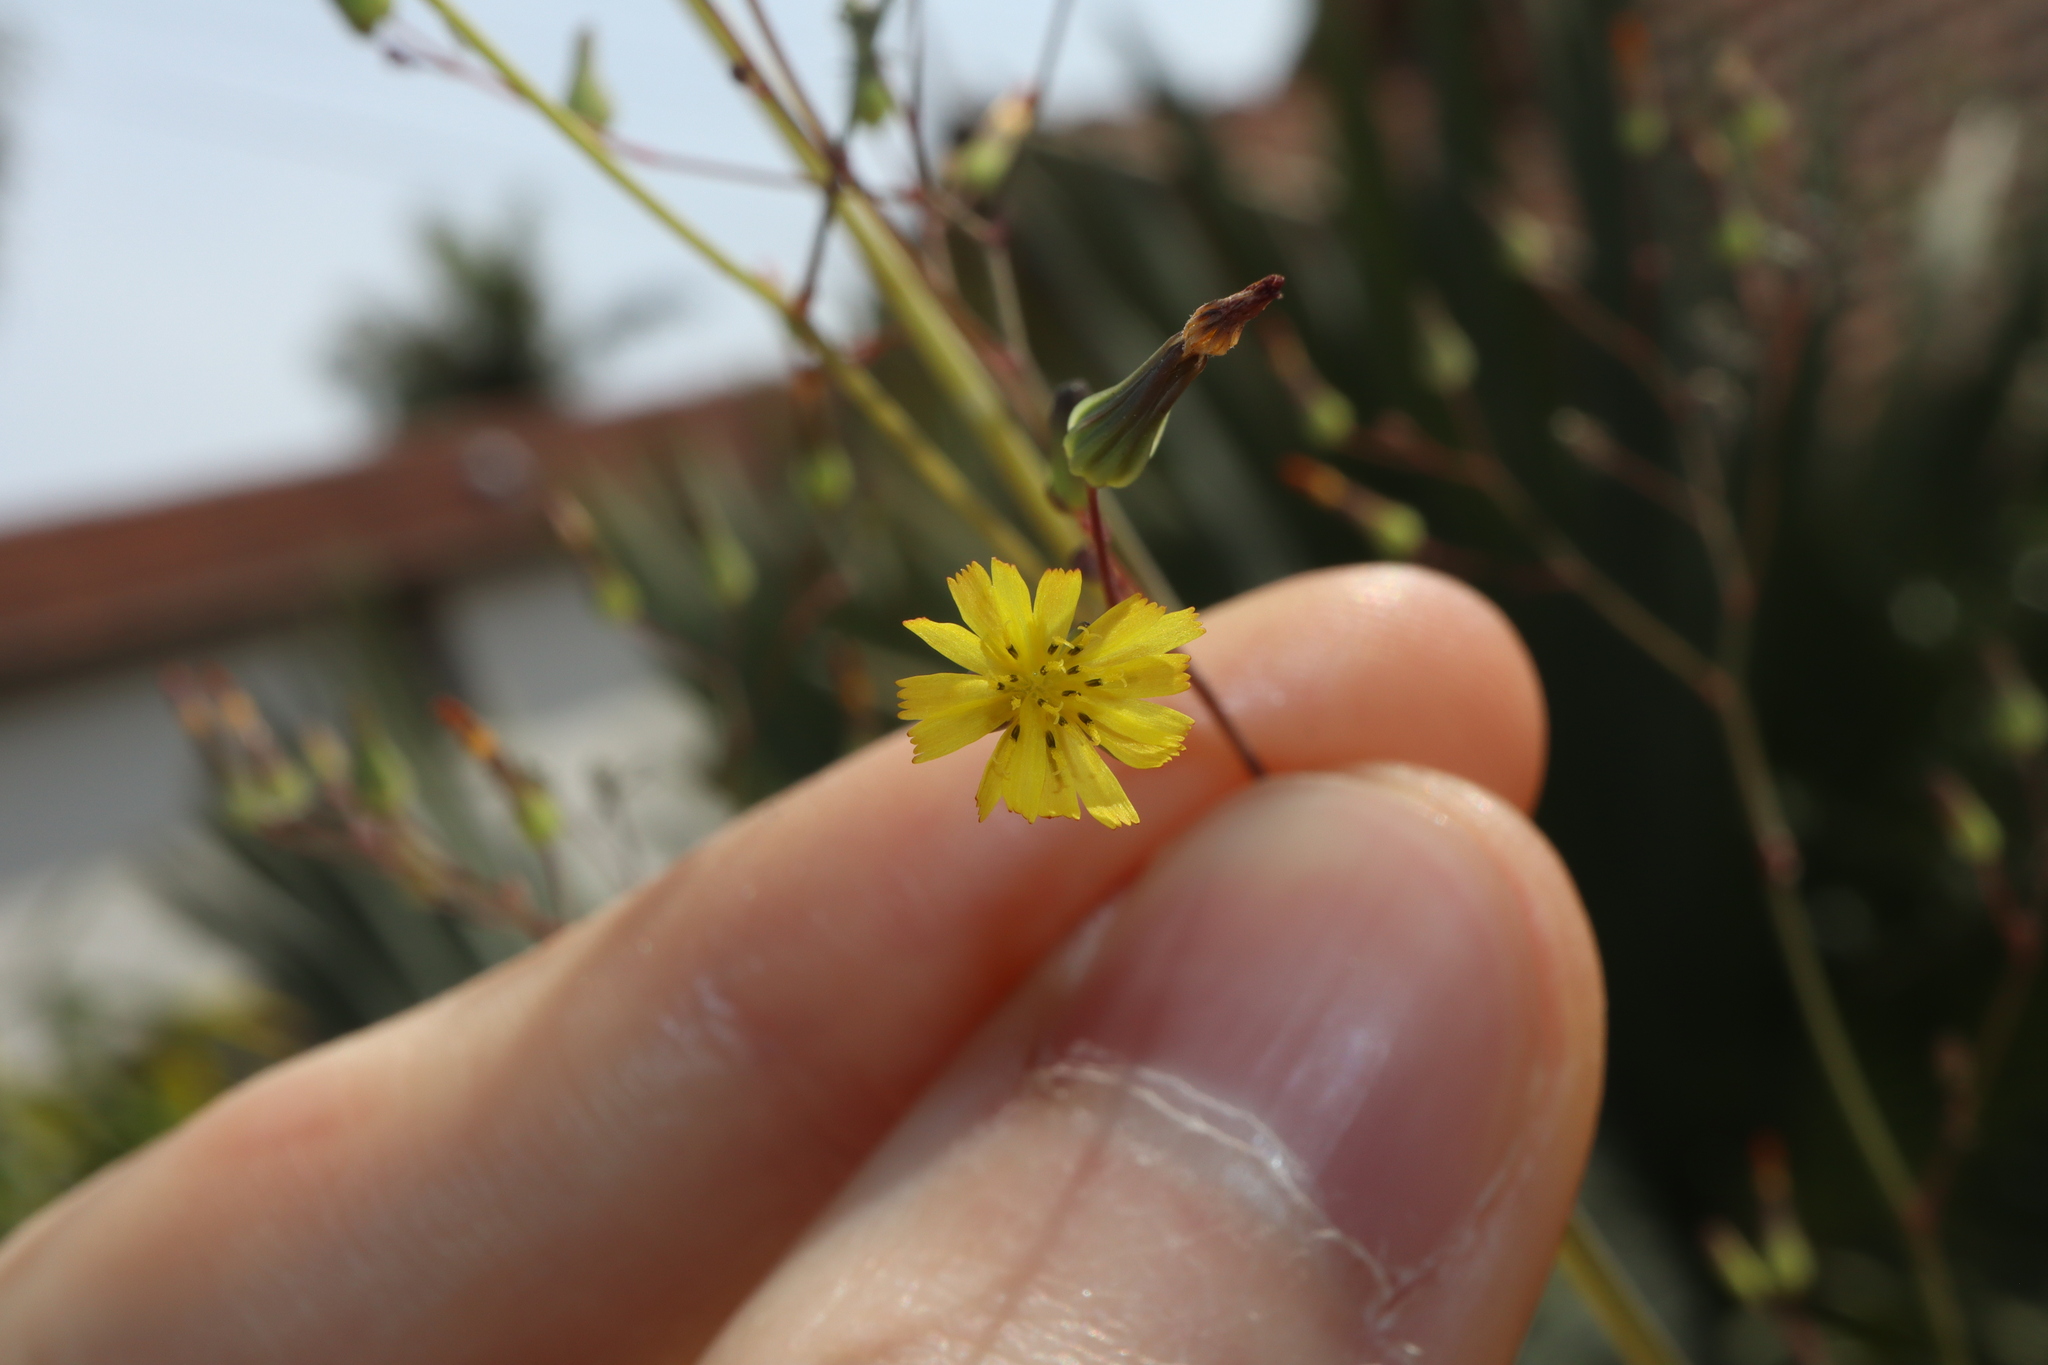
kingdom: Plantae
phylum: Tracheophyta
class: Magnoliopsida
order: Asterales
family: Asteraceae
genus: Youngia
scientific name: Youngia japonica
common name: Oriental false hawksbeard
